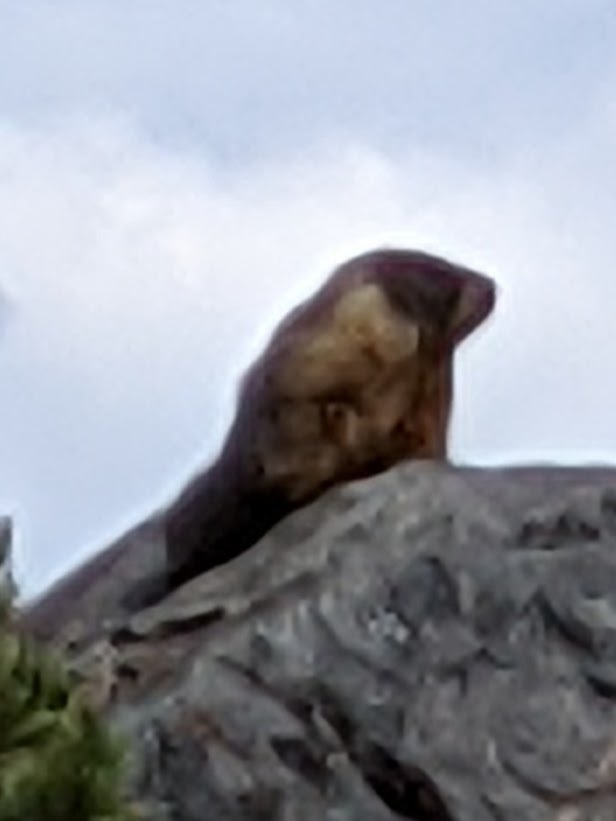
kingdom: Animalia
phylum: Chordata
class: Mammalia
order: Rodentia
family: Sciuridae
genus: Marmota
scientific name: Marmota flaviventris
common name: Yellow-bellied marmot
